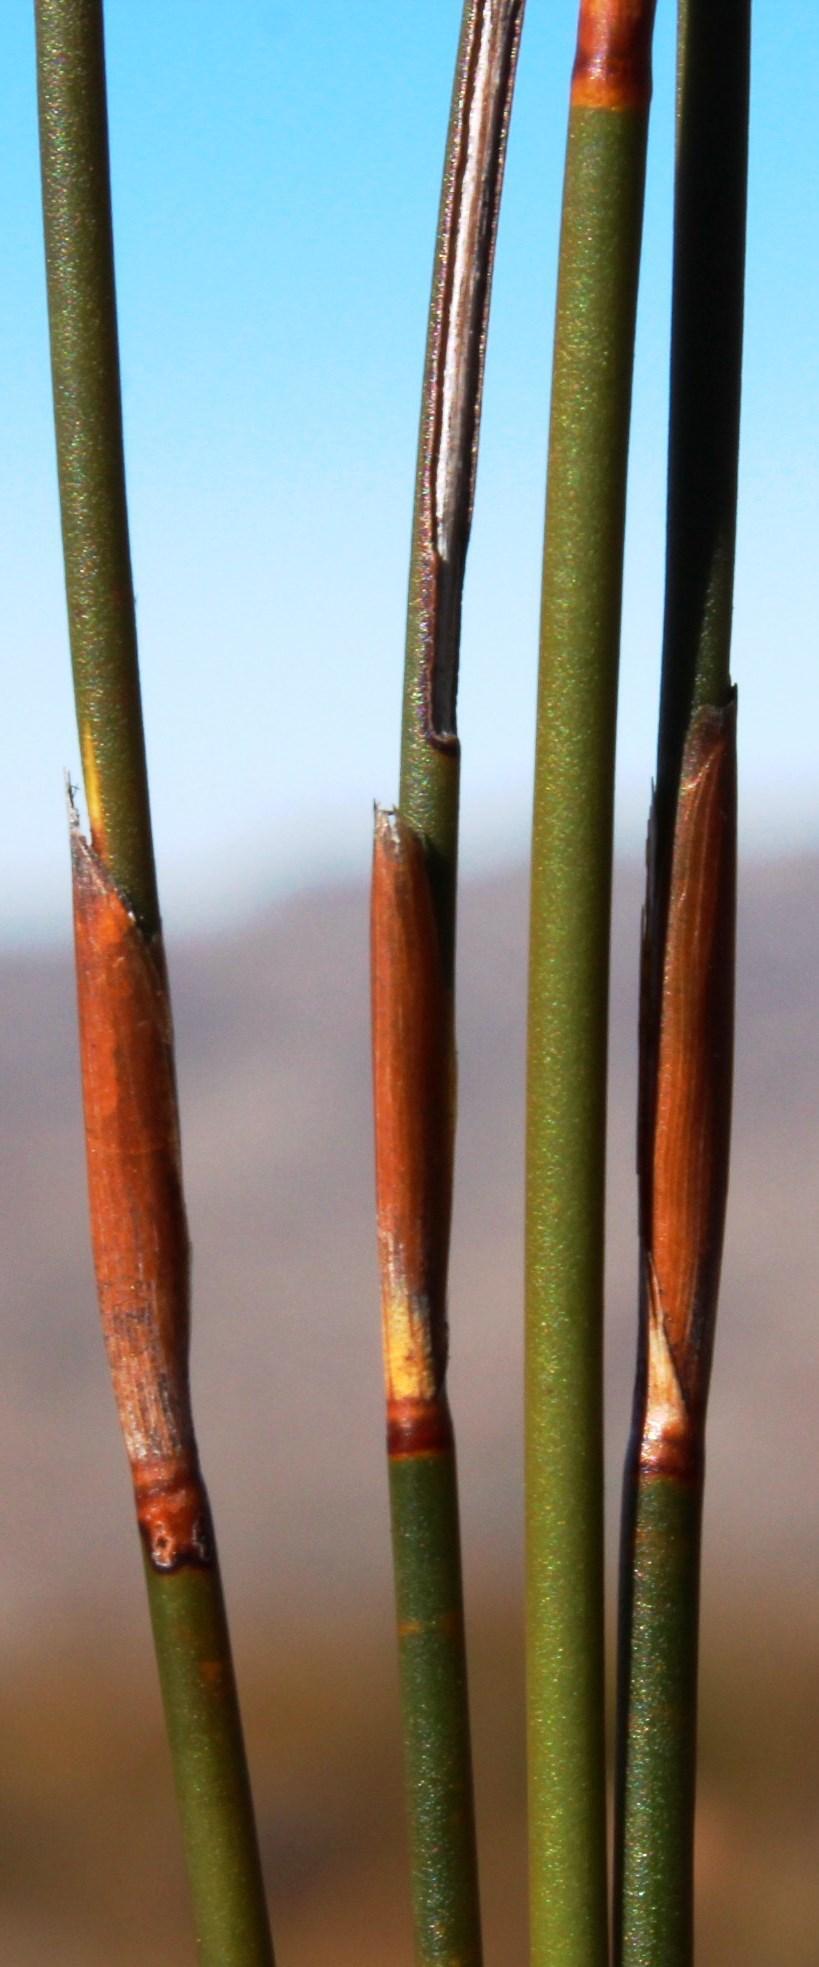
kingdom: Plantae
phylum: Tracheophyta
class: Liliopsida
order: Poales
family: Restionaceae
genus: Restio
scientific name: Restio virgeus
